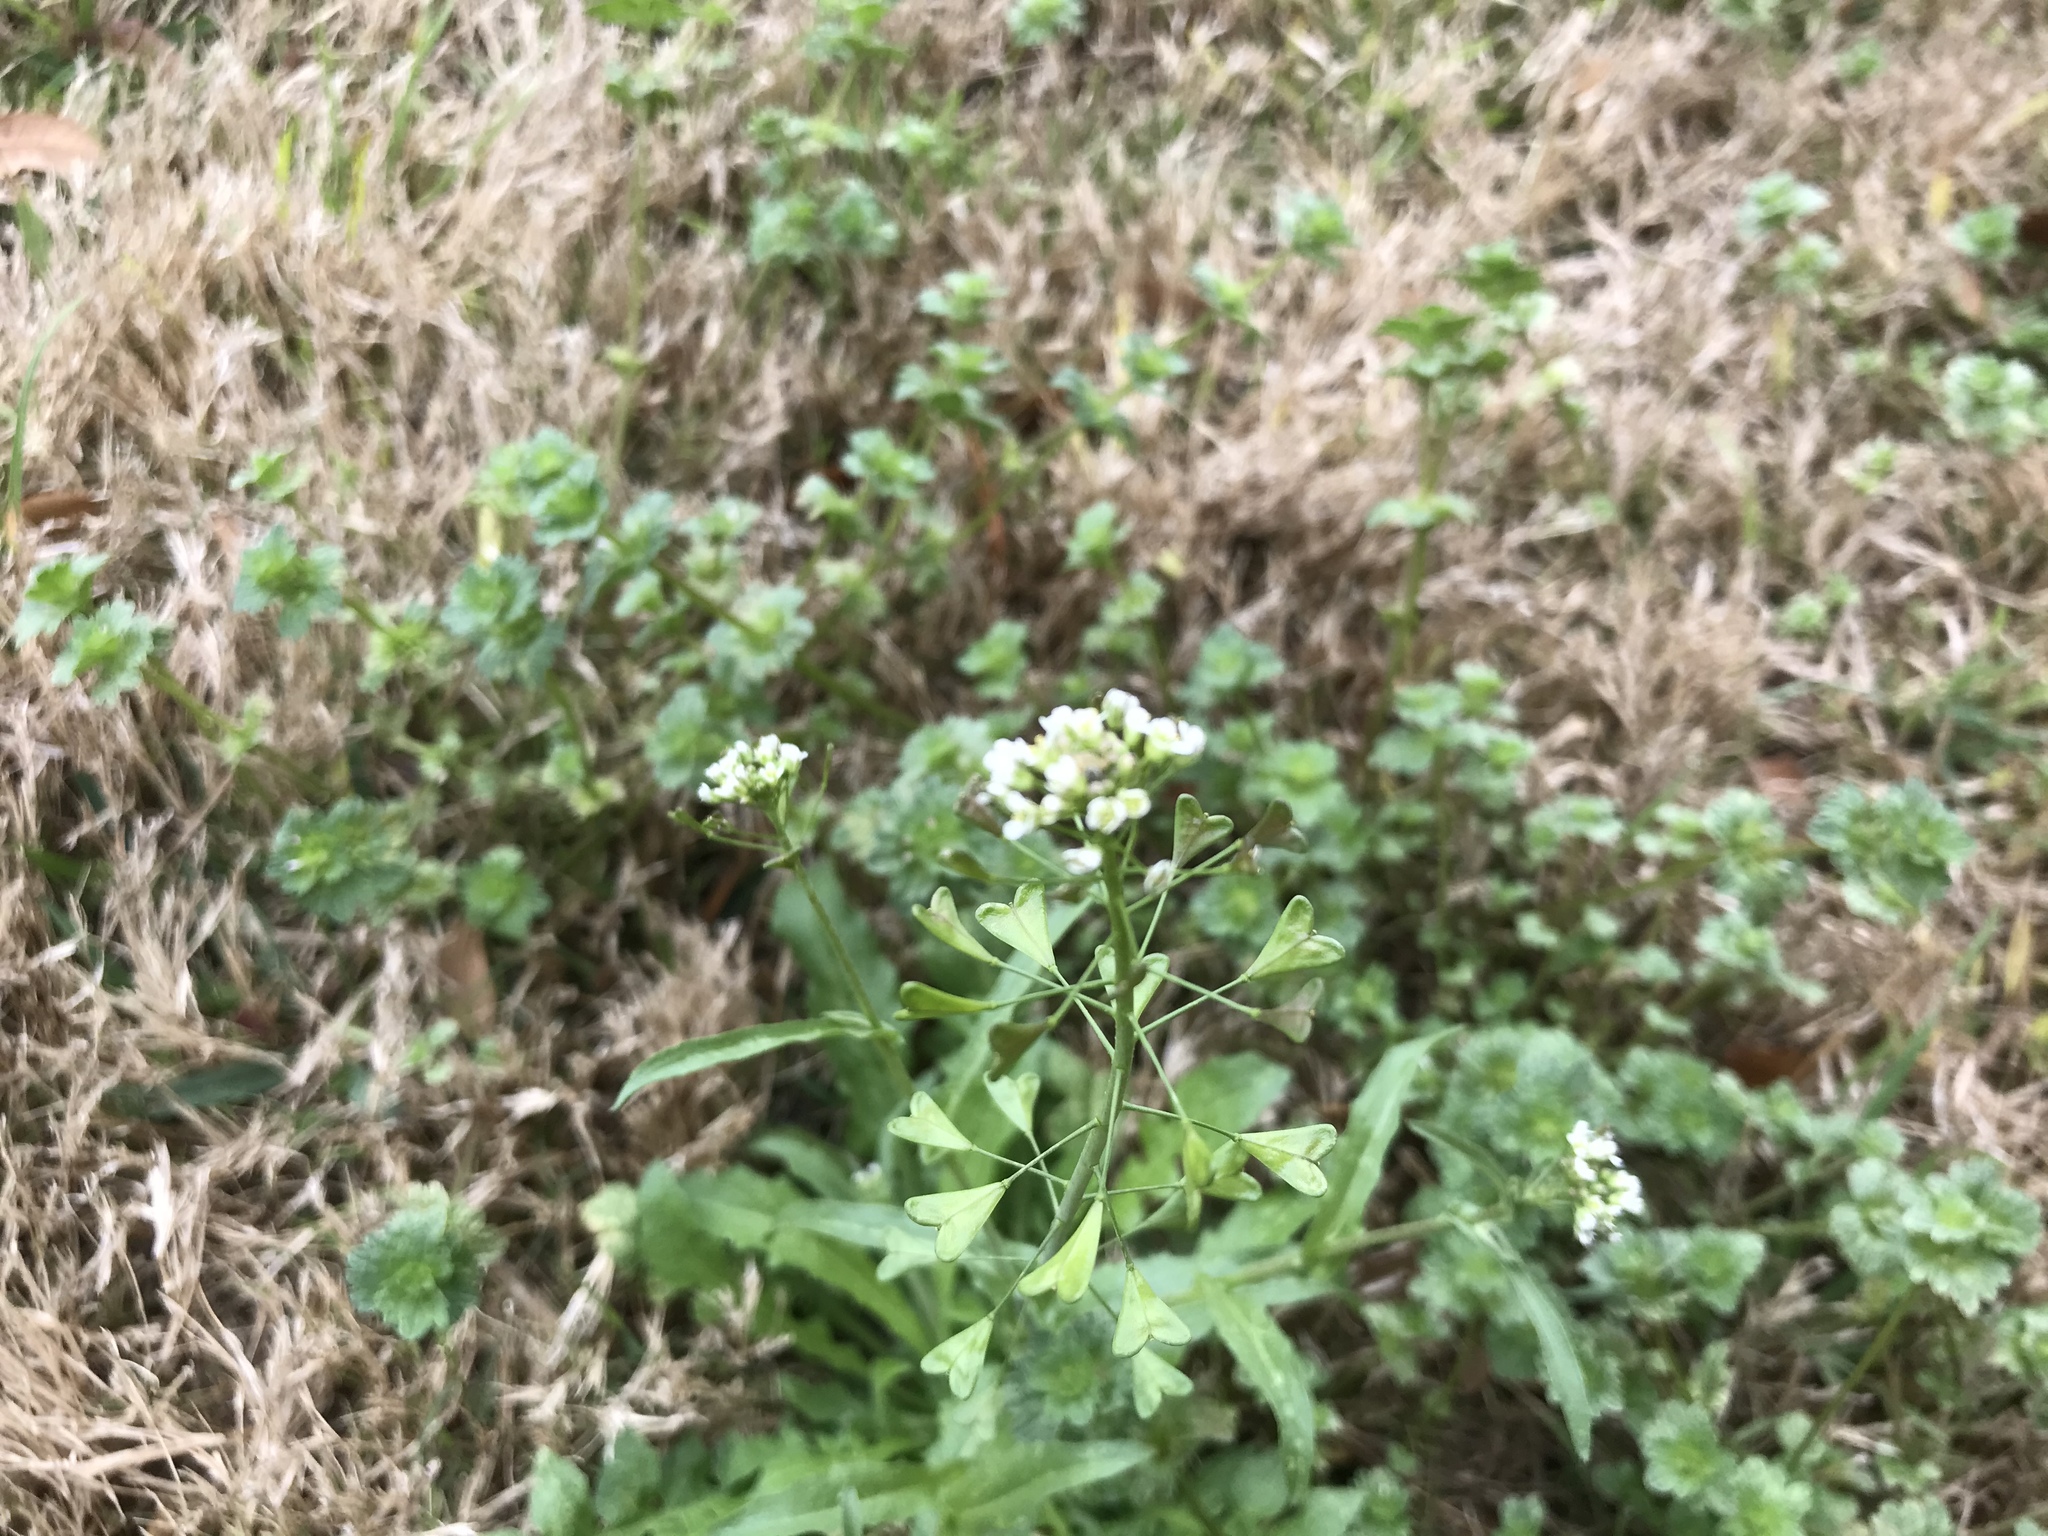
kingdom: Plantae
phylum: Tracheophyta
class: Magnoliopsida
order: Brassicales
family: Brassicaceae
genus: Capsella
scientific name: Capsella bursa-pastoris
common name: Shepherd's purse
